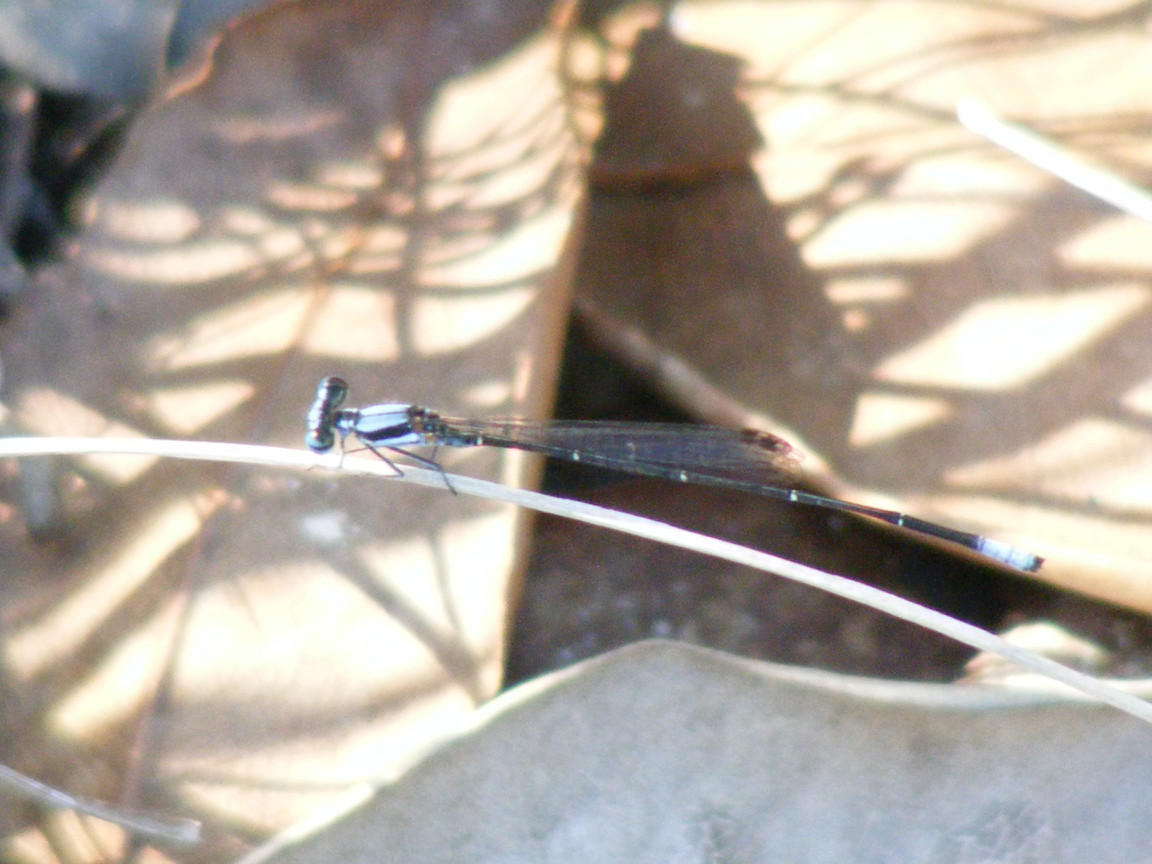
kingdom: Animalia
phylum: Arthropoda
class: Insecta
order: Odonata
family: Platycnemididae
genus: Elattoneura
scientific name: Elattoneura glauca
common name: Common threadtail
